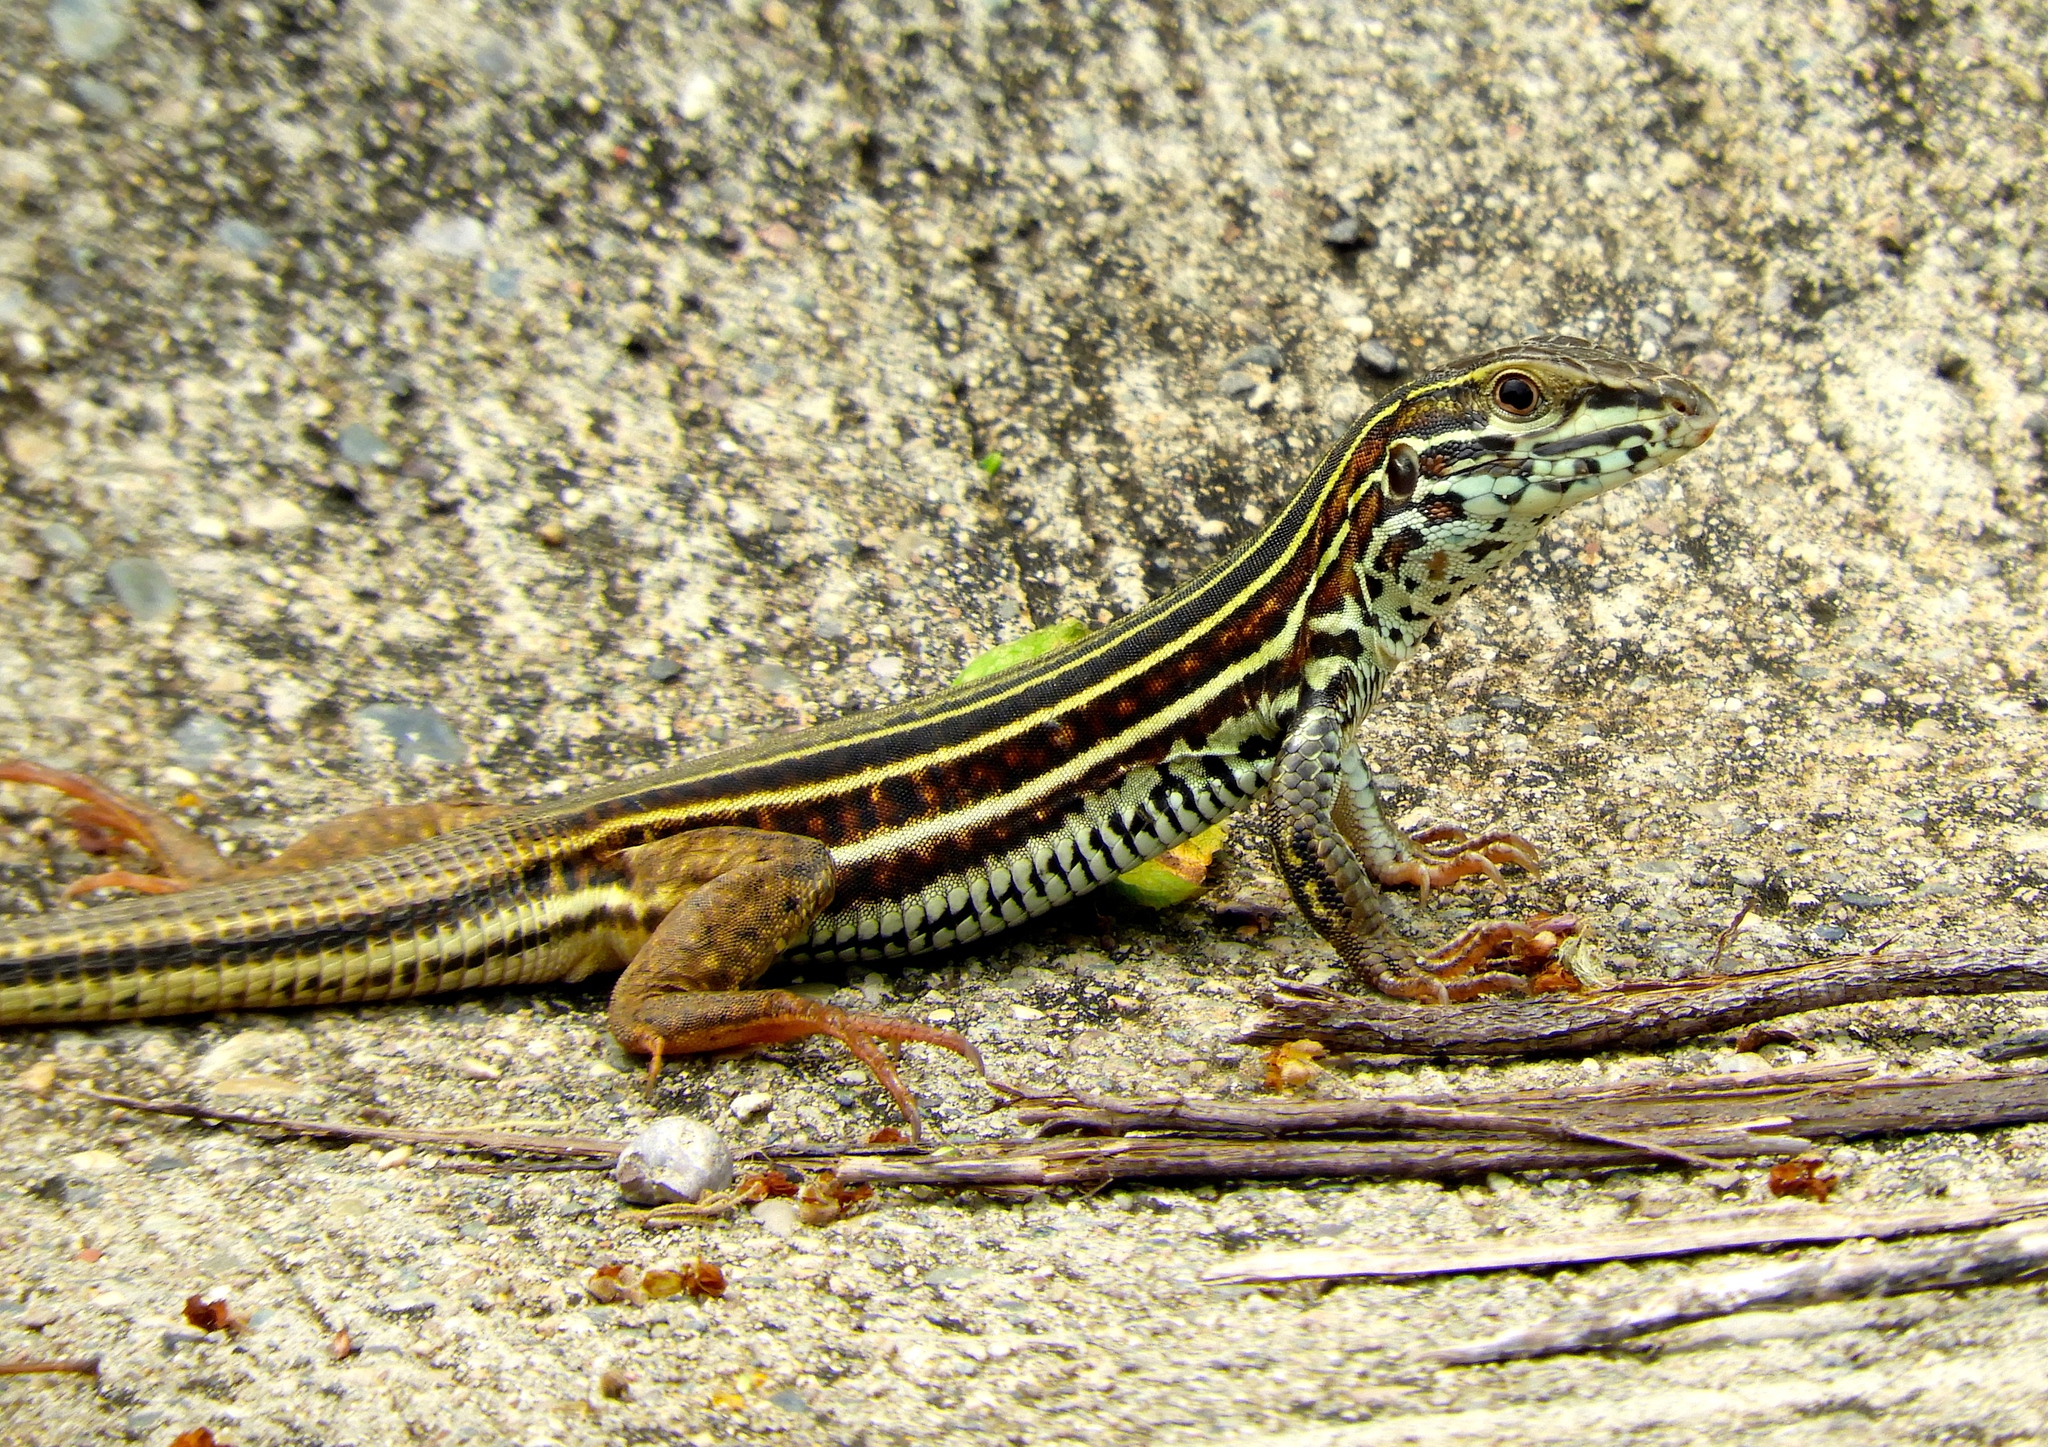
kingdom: Animalia
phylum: Chordata
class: Squamata
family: Teiidae
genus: Aspidoscelis
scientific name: Aspidoscelis costatus
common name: Western mexico whiptail
